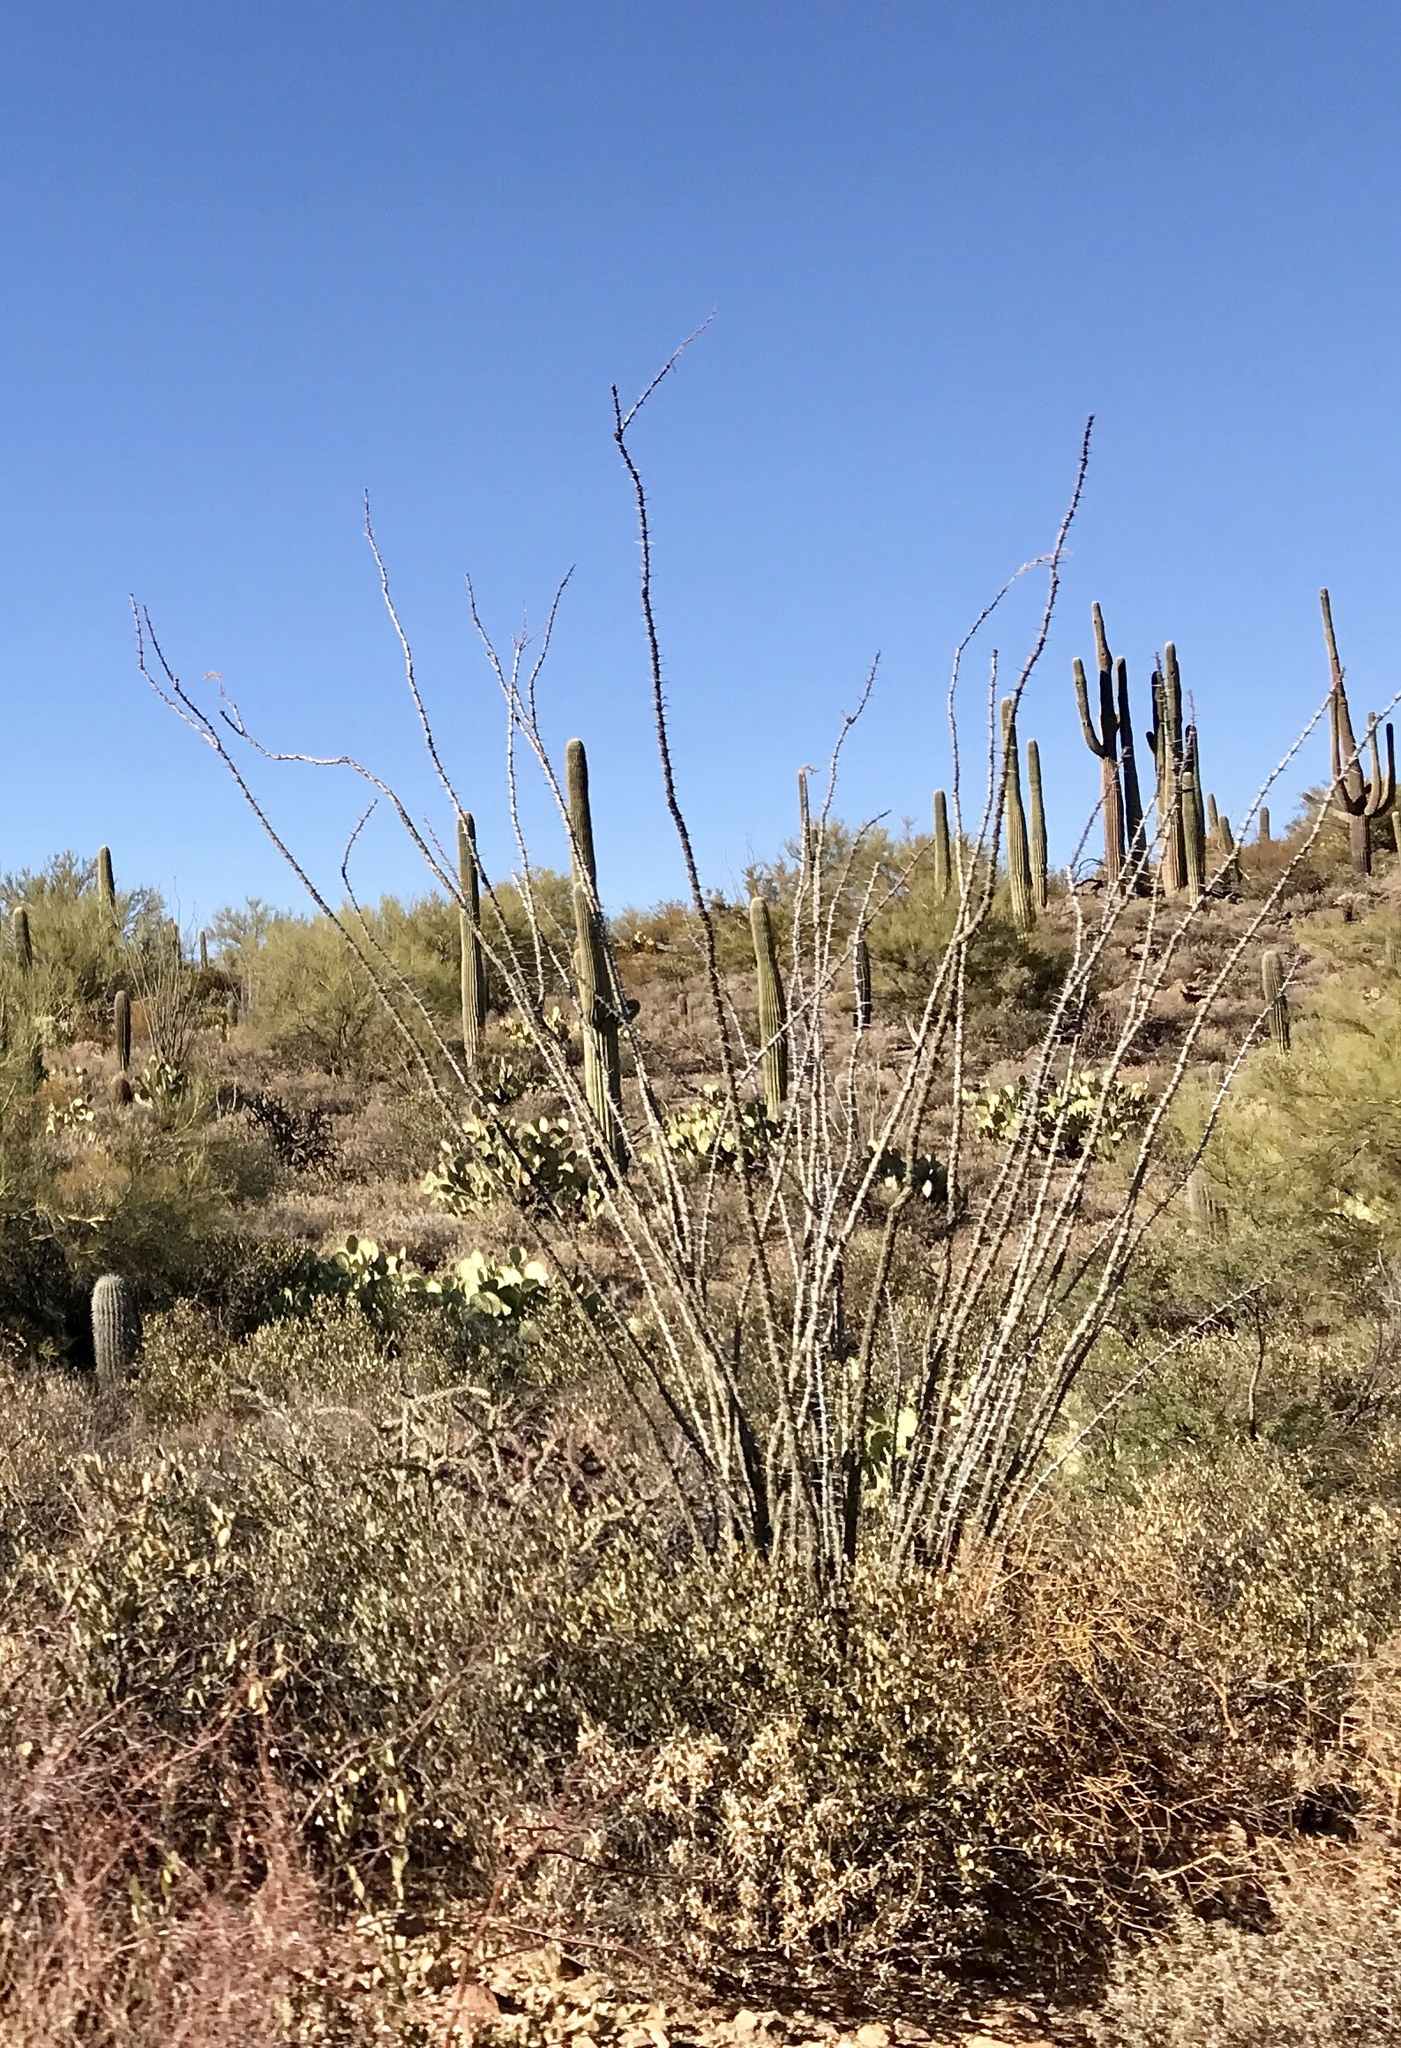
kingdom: Plantae
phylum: Tracheophyta
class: Magnoliopsida
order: Ericales
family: Fouquieriaceae
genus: Fouquieria
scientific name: Fouquieria splendens
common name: Vine-cactus
